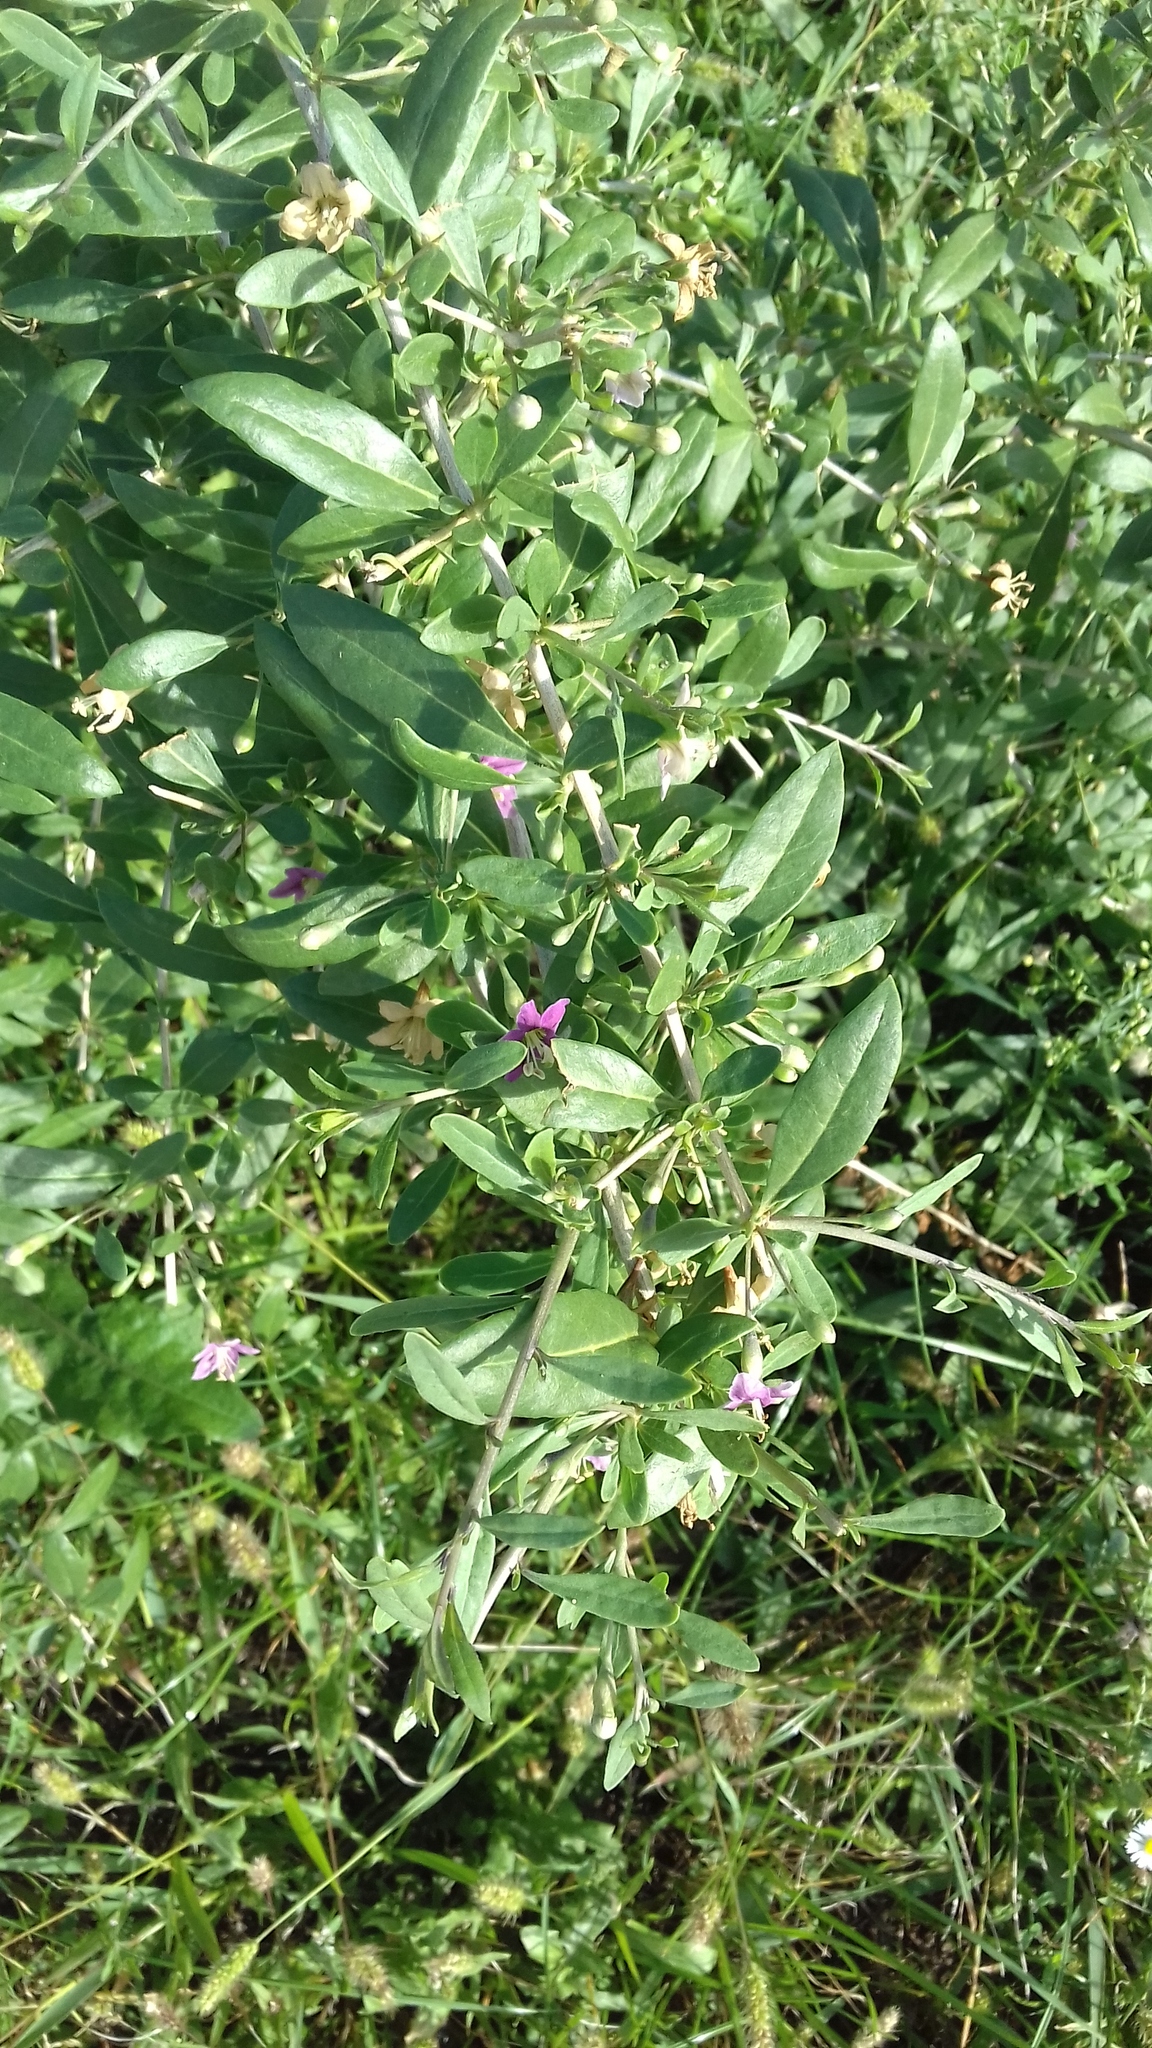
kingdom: Plantae
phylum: Tracheophyta
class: Magnoliopsida
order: Solanales
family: Solanaceae
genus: Lycium
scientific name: Lycium barbarum
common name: Duke of argyll's teaplant
